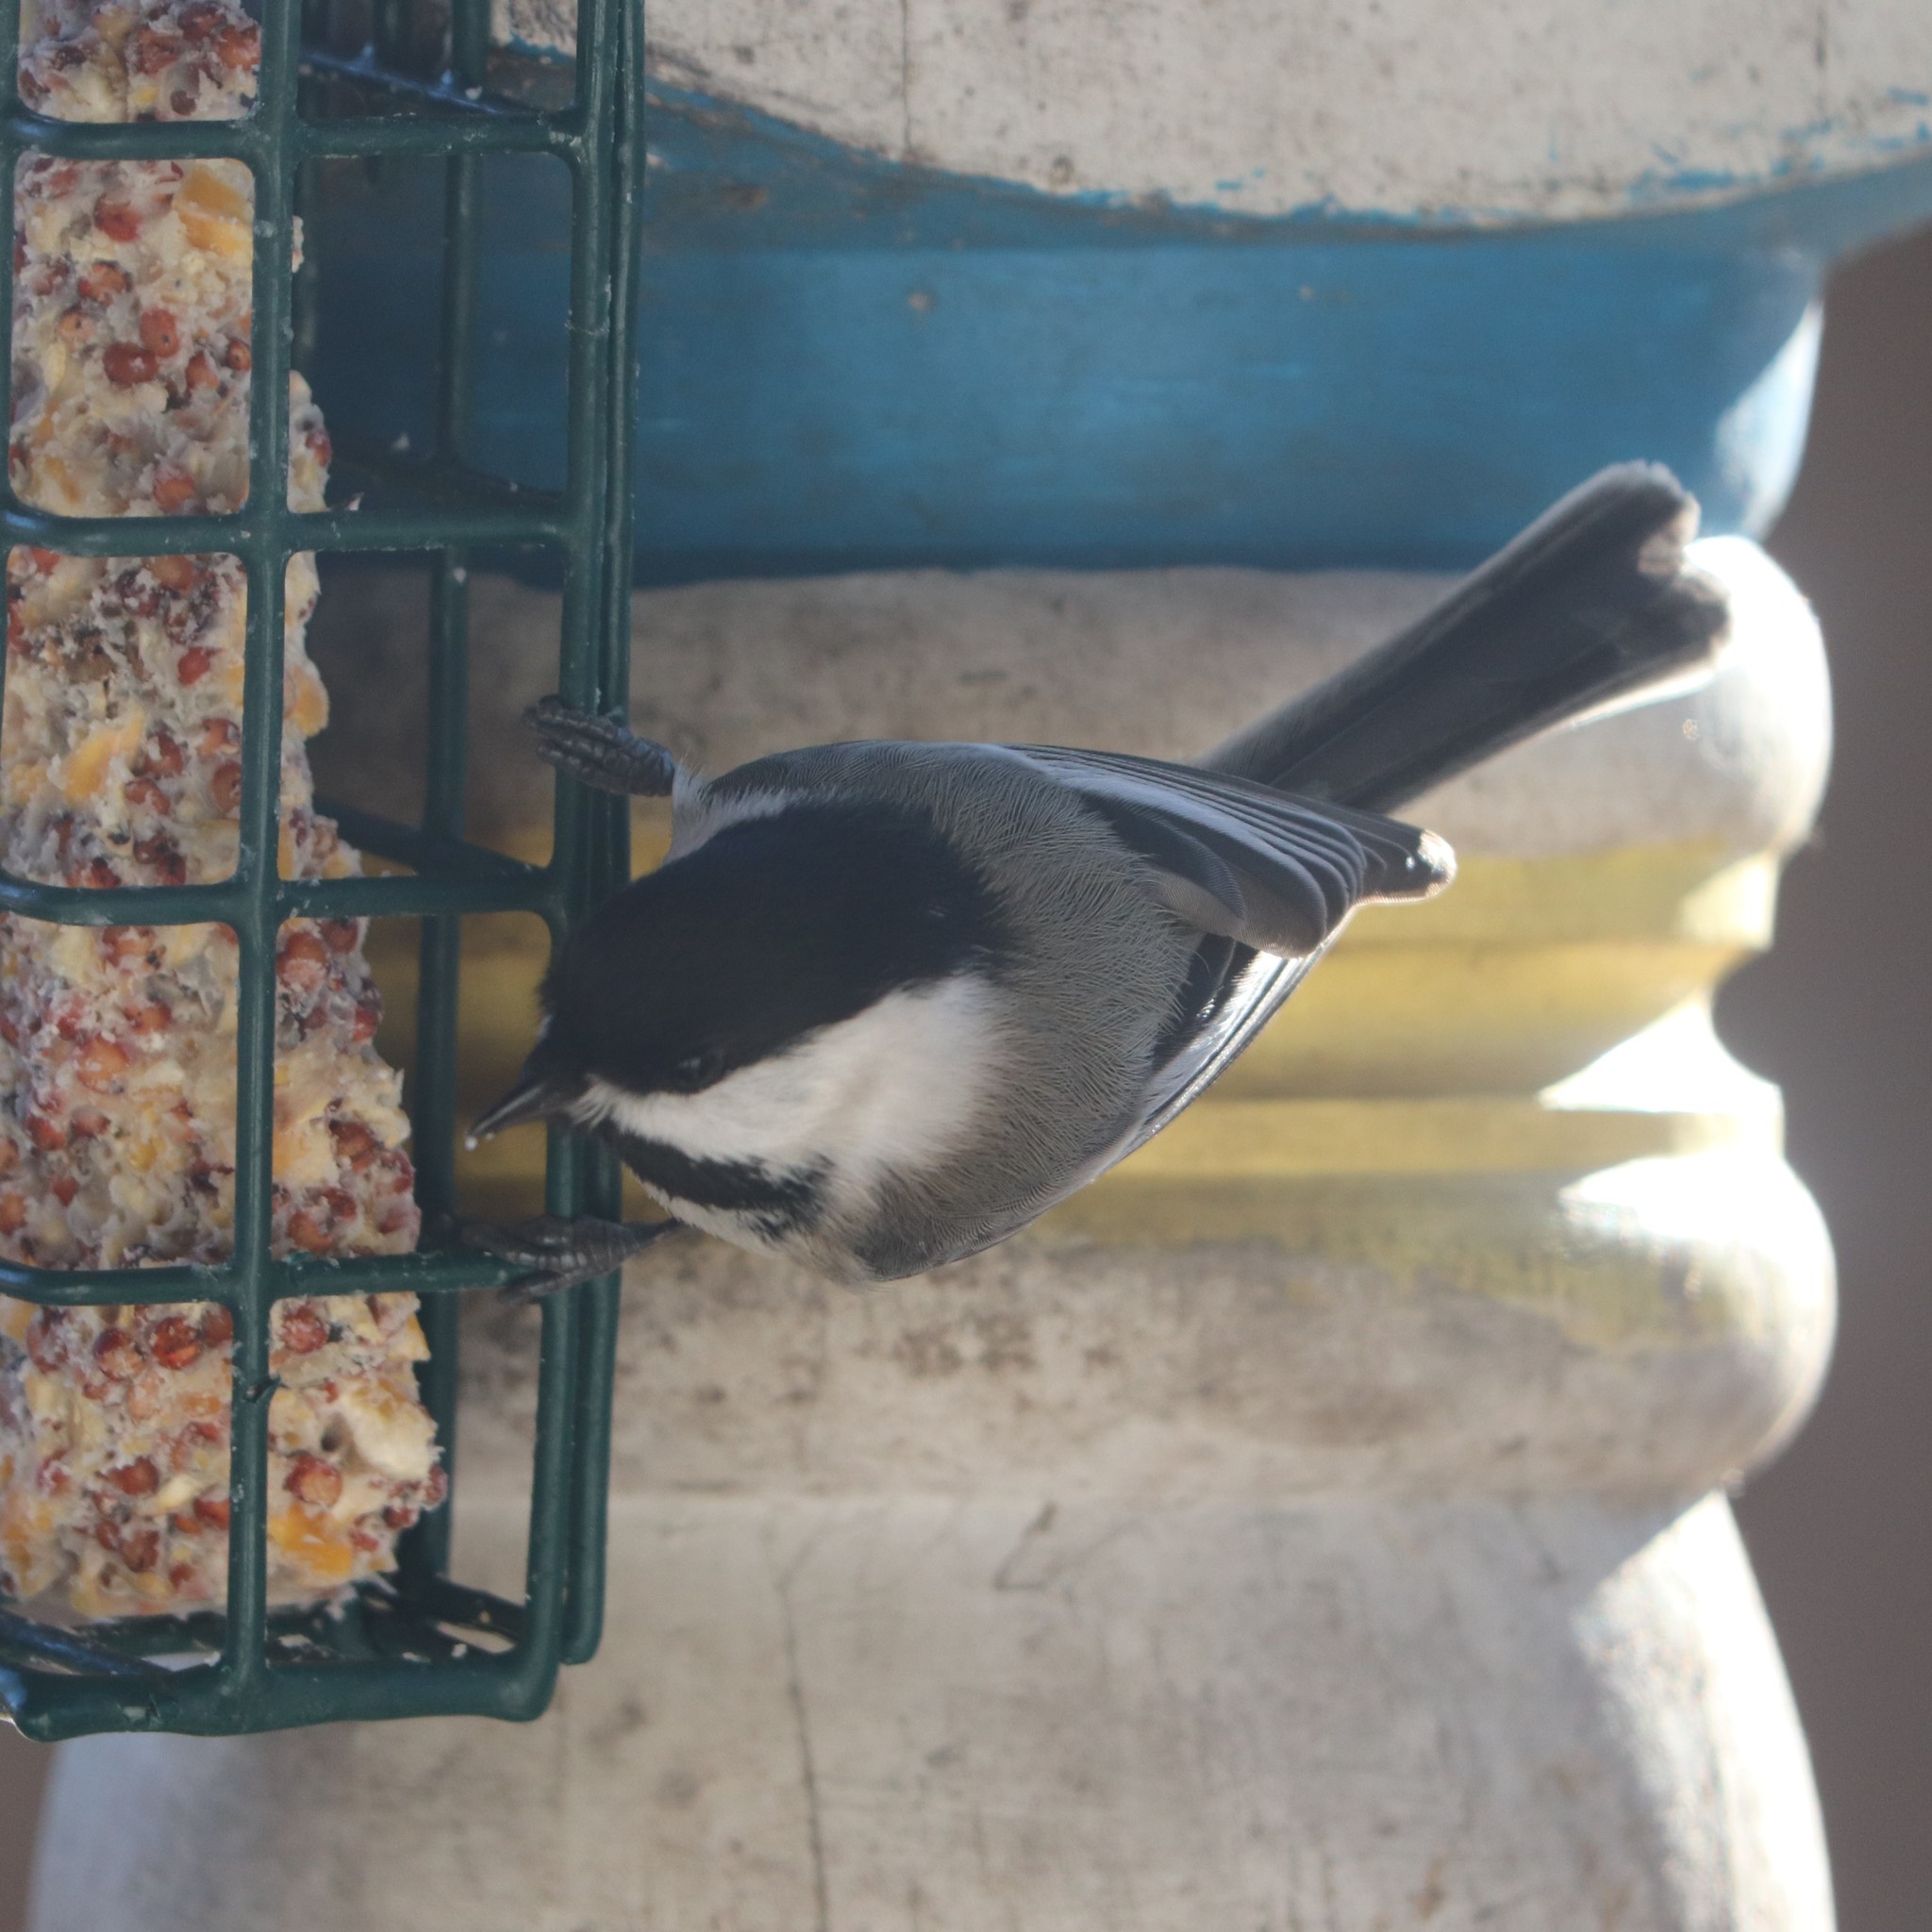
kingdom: Animalia
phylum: Chordata
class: Aves
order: Passeriformes
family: Paridae
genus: Poecile
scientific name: Poecile atricapillus
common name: Black-capped chickadee
